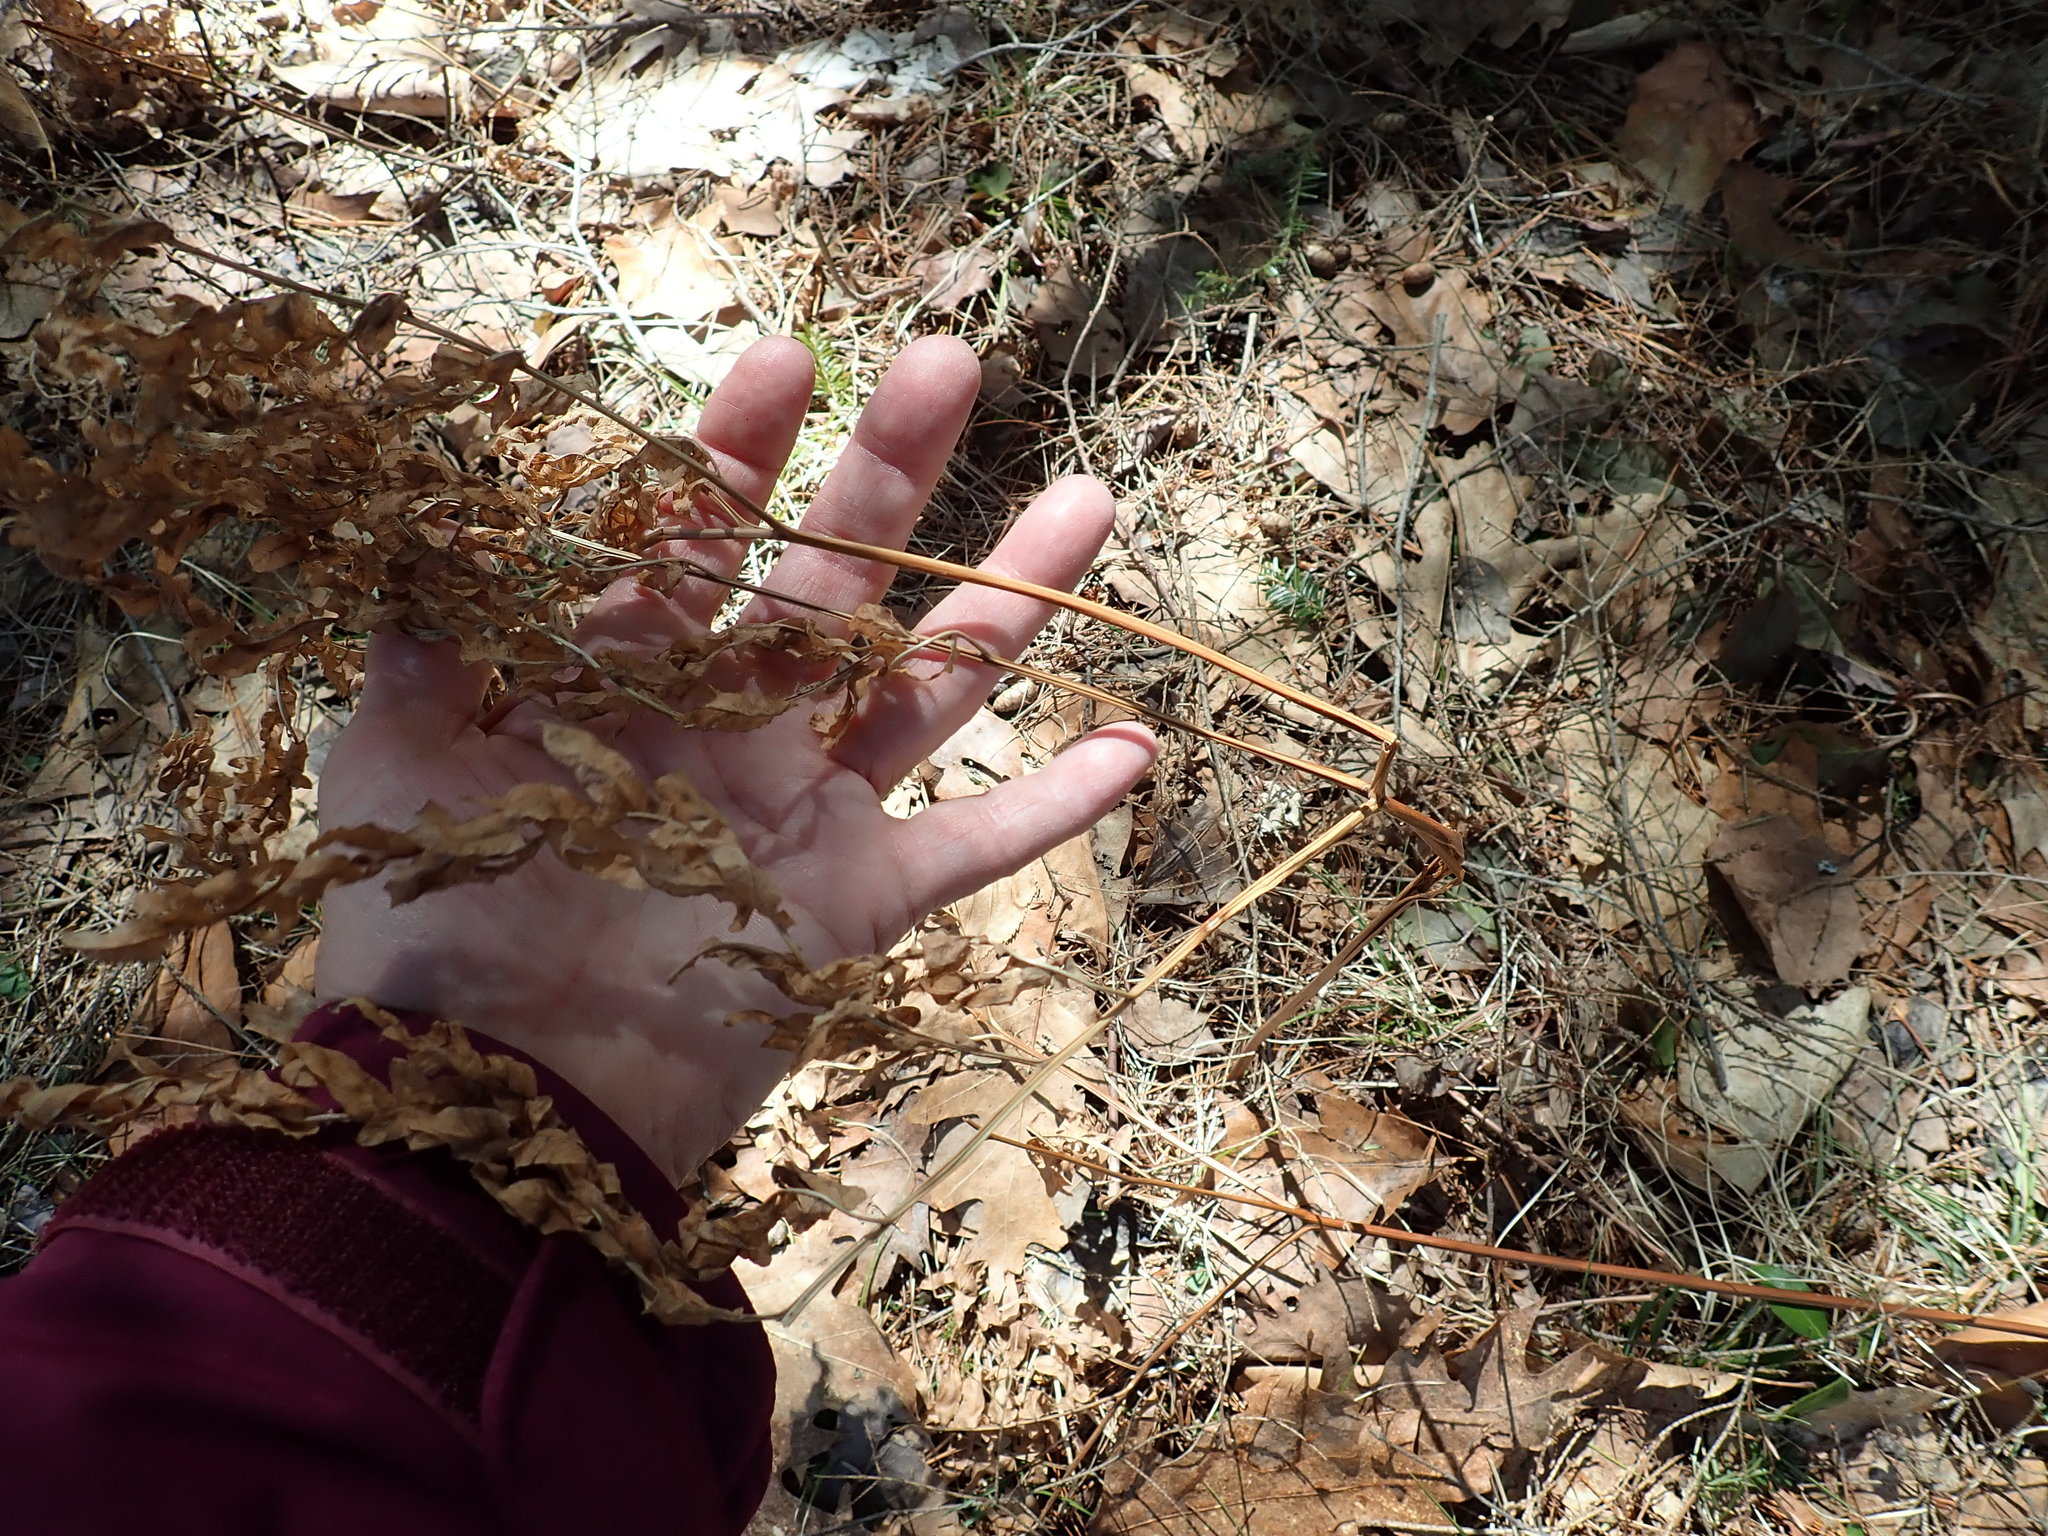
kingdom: Plantae
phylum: Tracheophyta
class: Polypodiopsida
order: Polypodiales
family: Dennstaedtiaceae
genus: Pteridium
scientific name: Pteridium aquilinum
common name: Bracken
